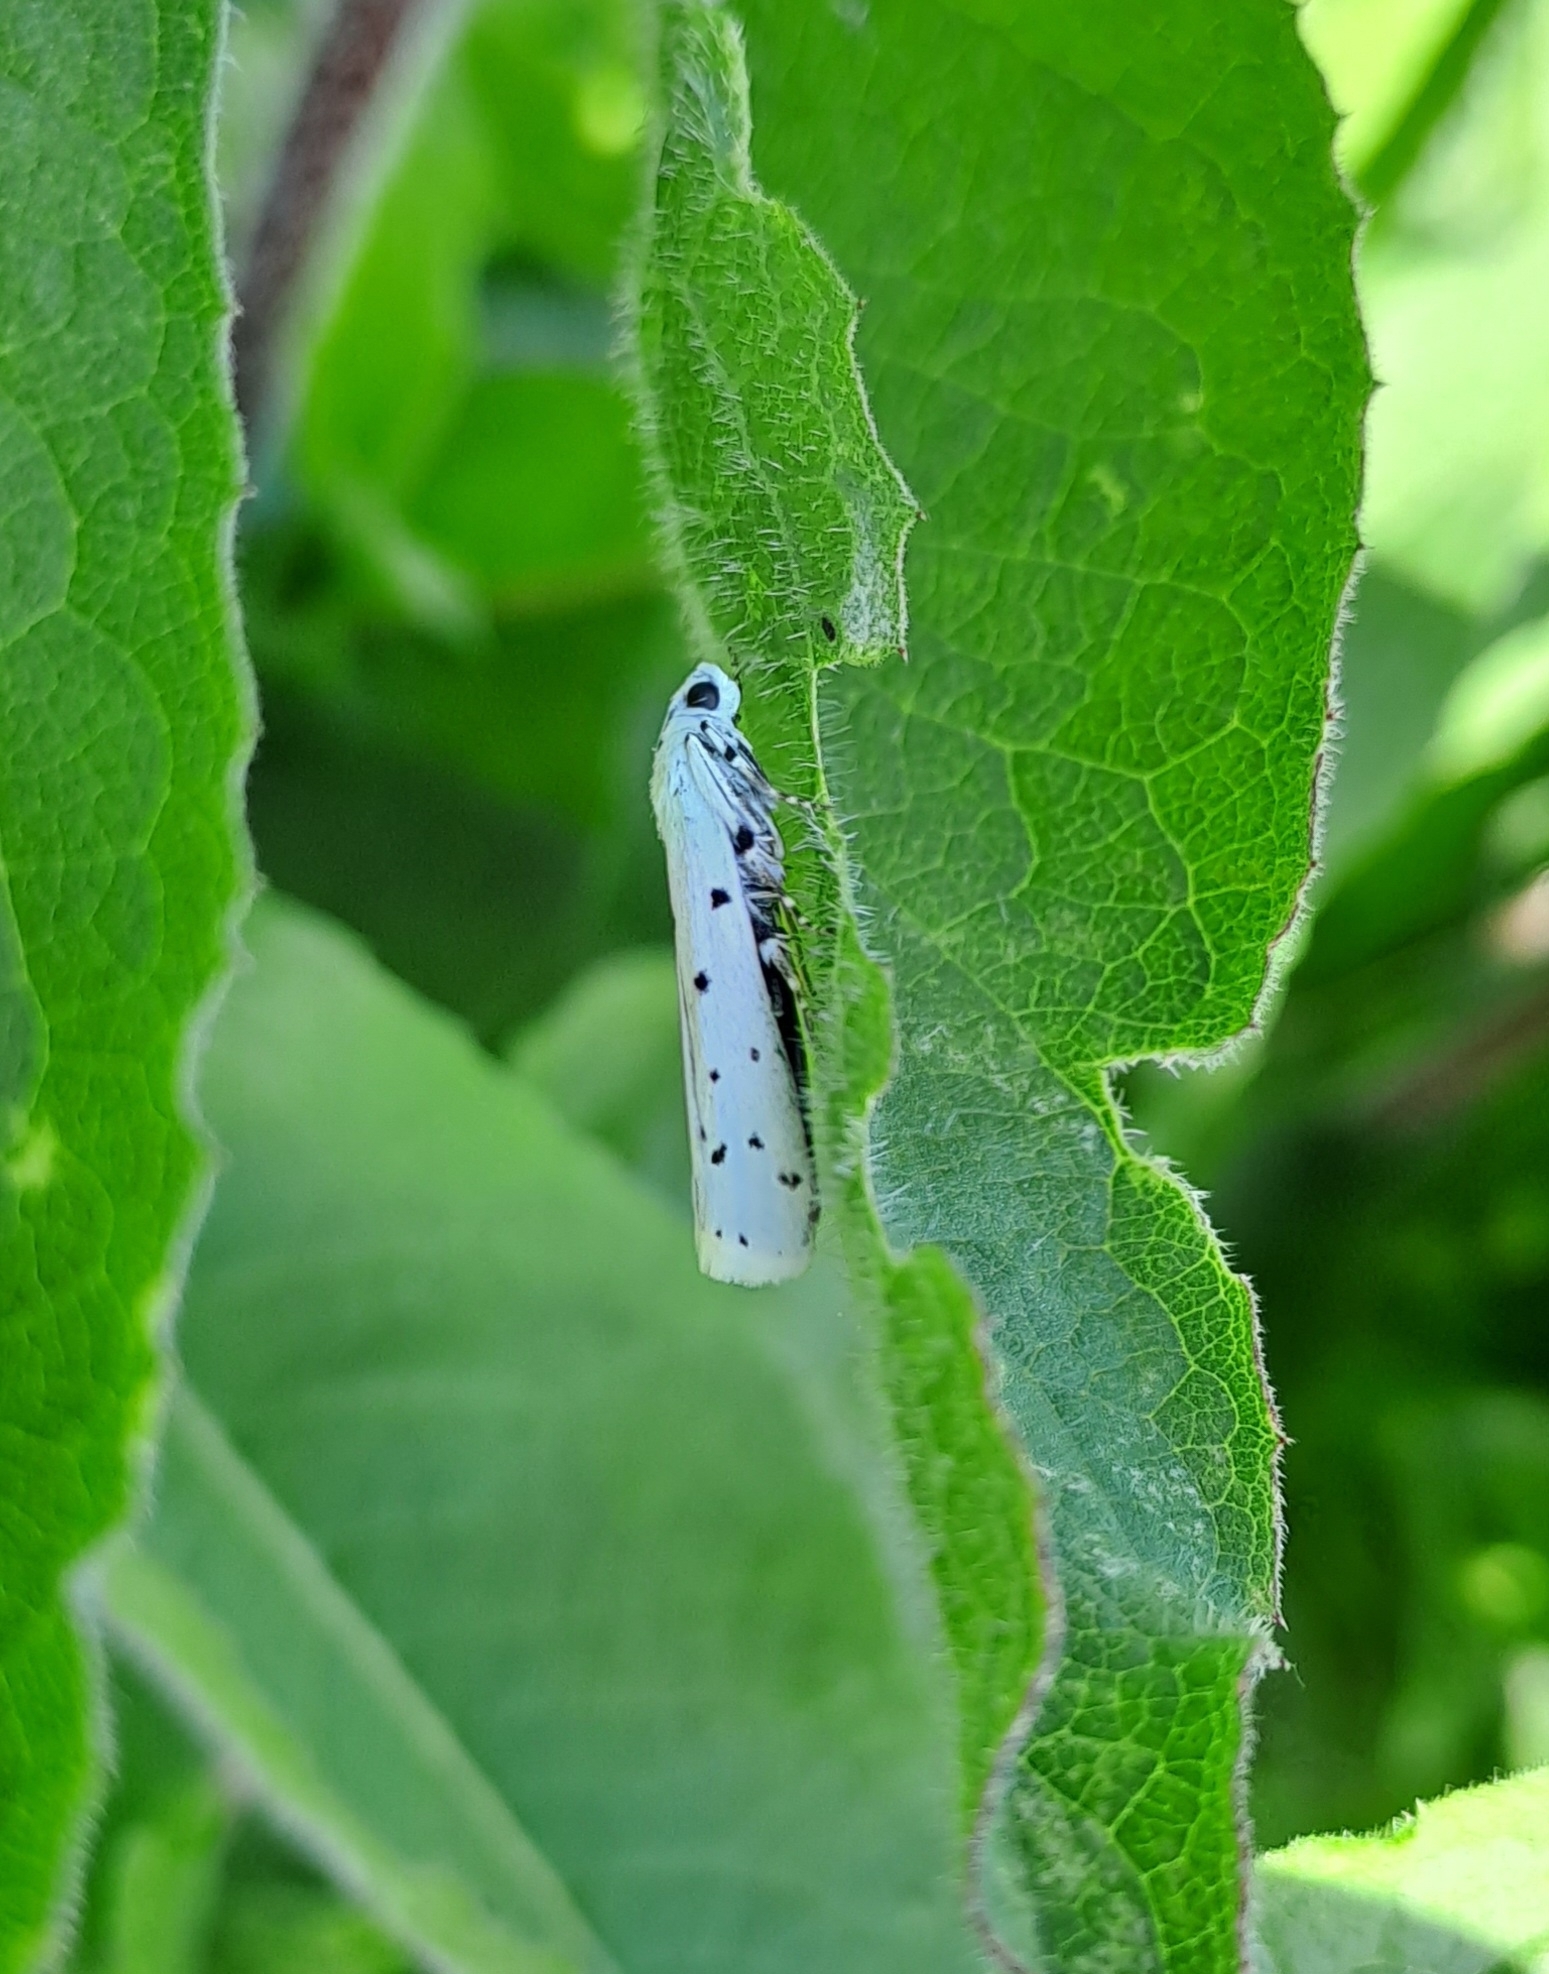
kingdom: Animalia
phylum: Arthropoda
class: Insecta
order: Lepidoptera
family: Pyralidae
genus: Myelois
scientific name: Myelois circumvoluta
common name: Thistle ermine
